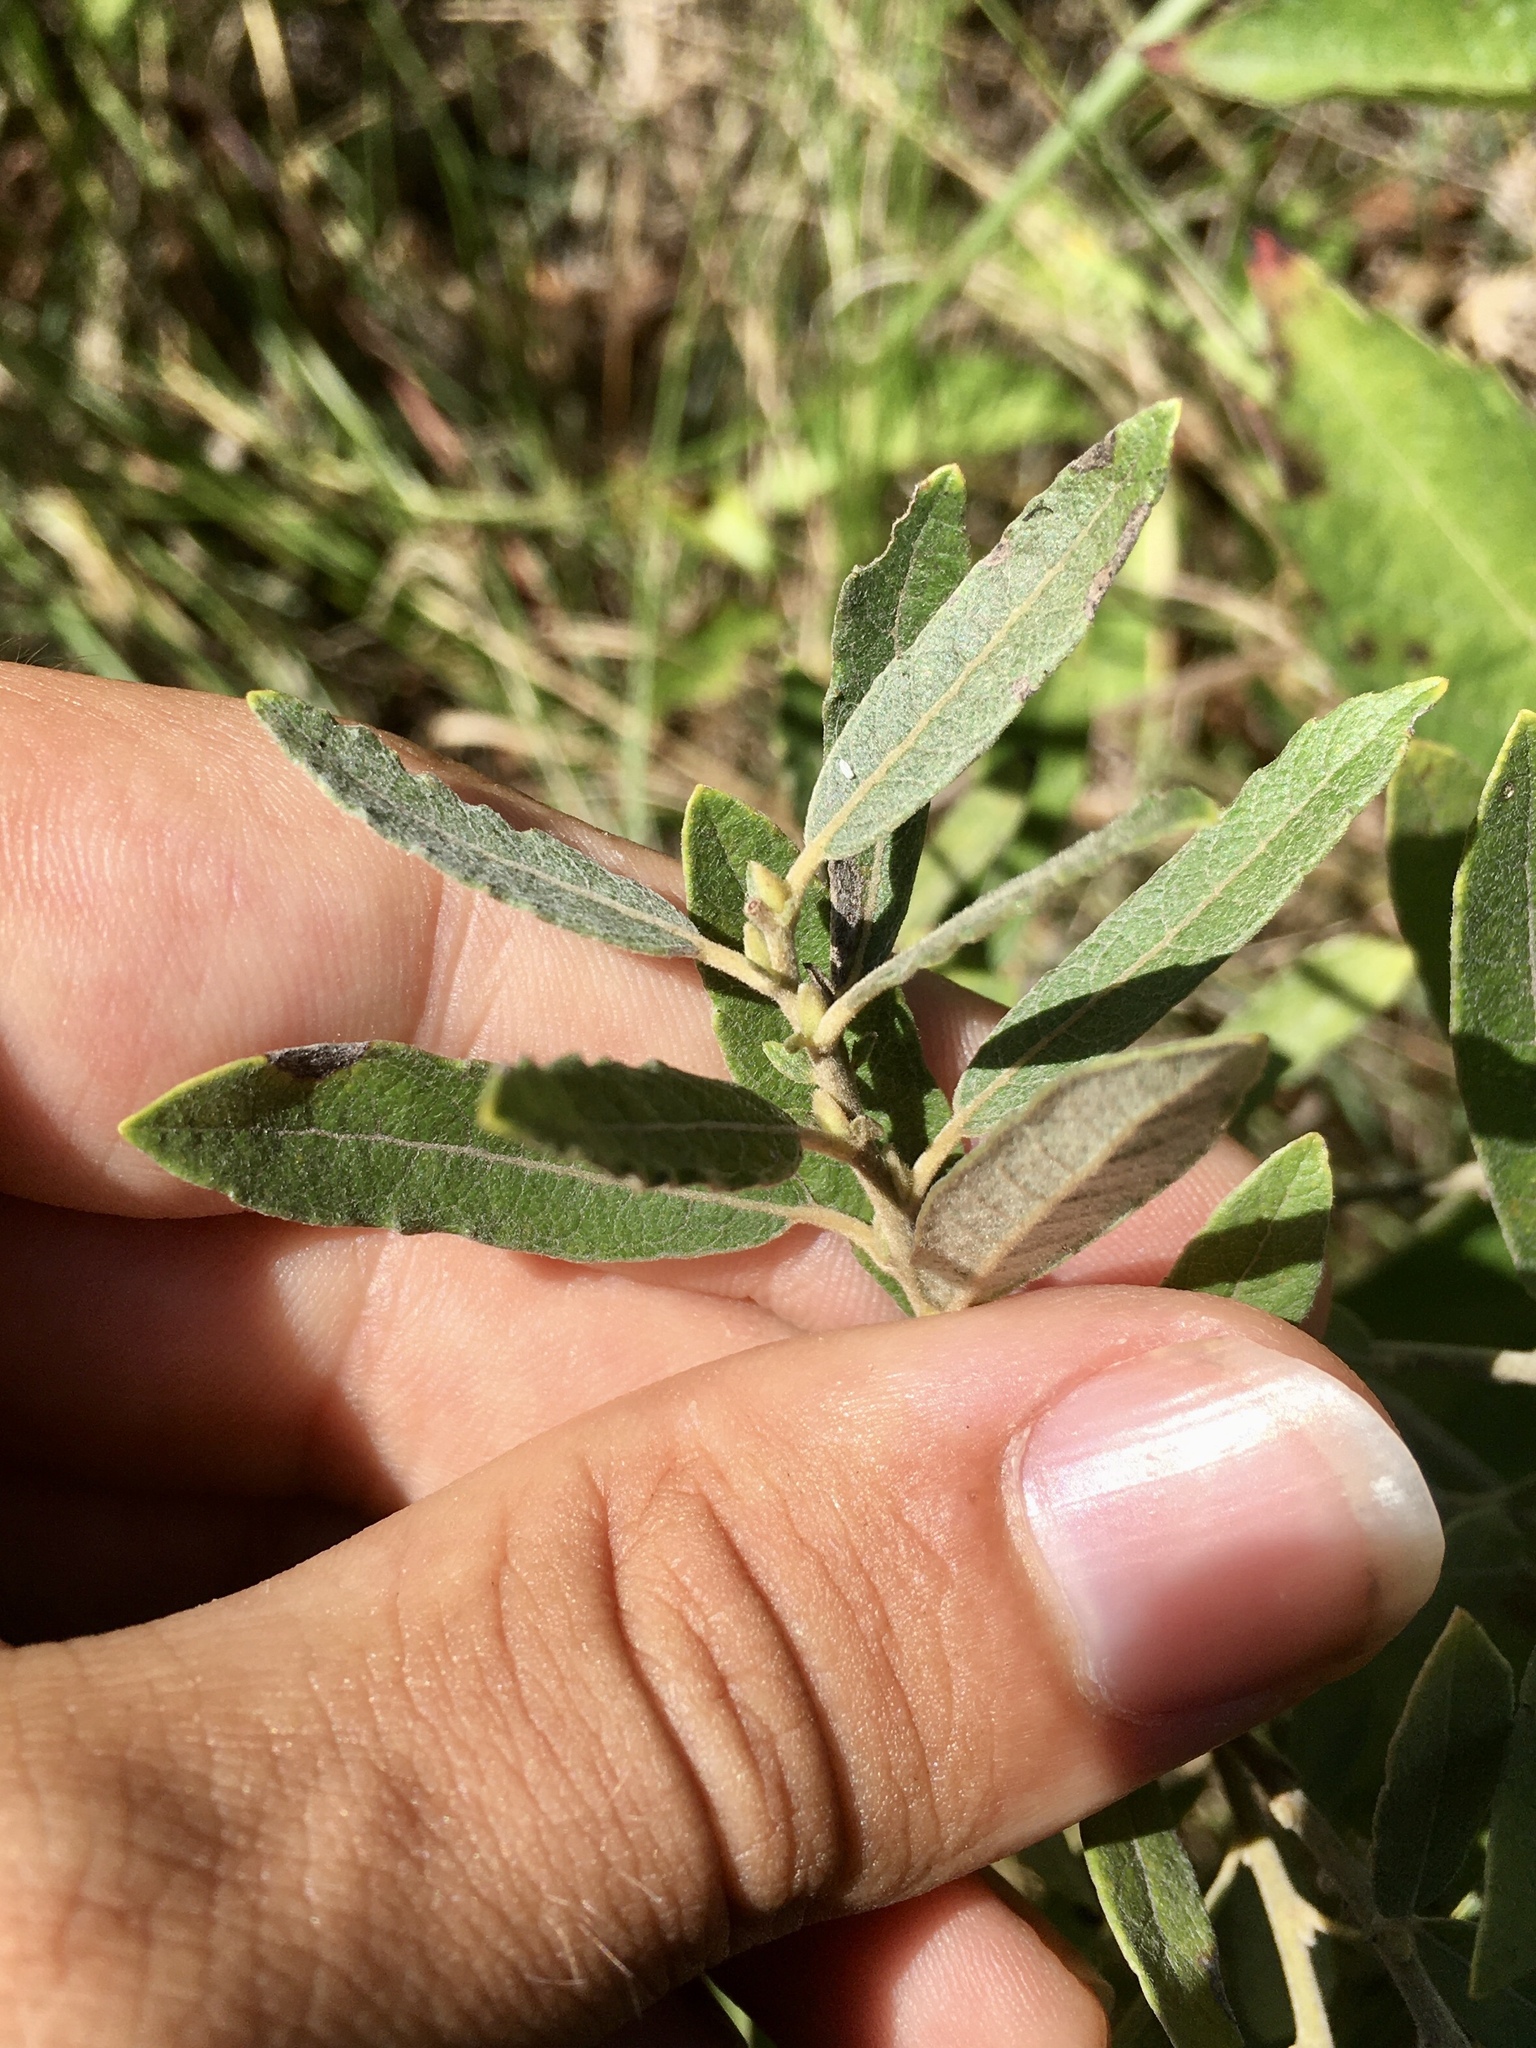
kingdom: Plantae
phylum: Tracheophyta
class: Magnoliopsida
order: Malpighiales
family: Salicaceae
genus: Salix
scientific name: Salix humilis
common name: Prairie willow
